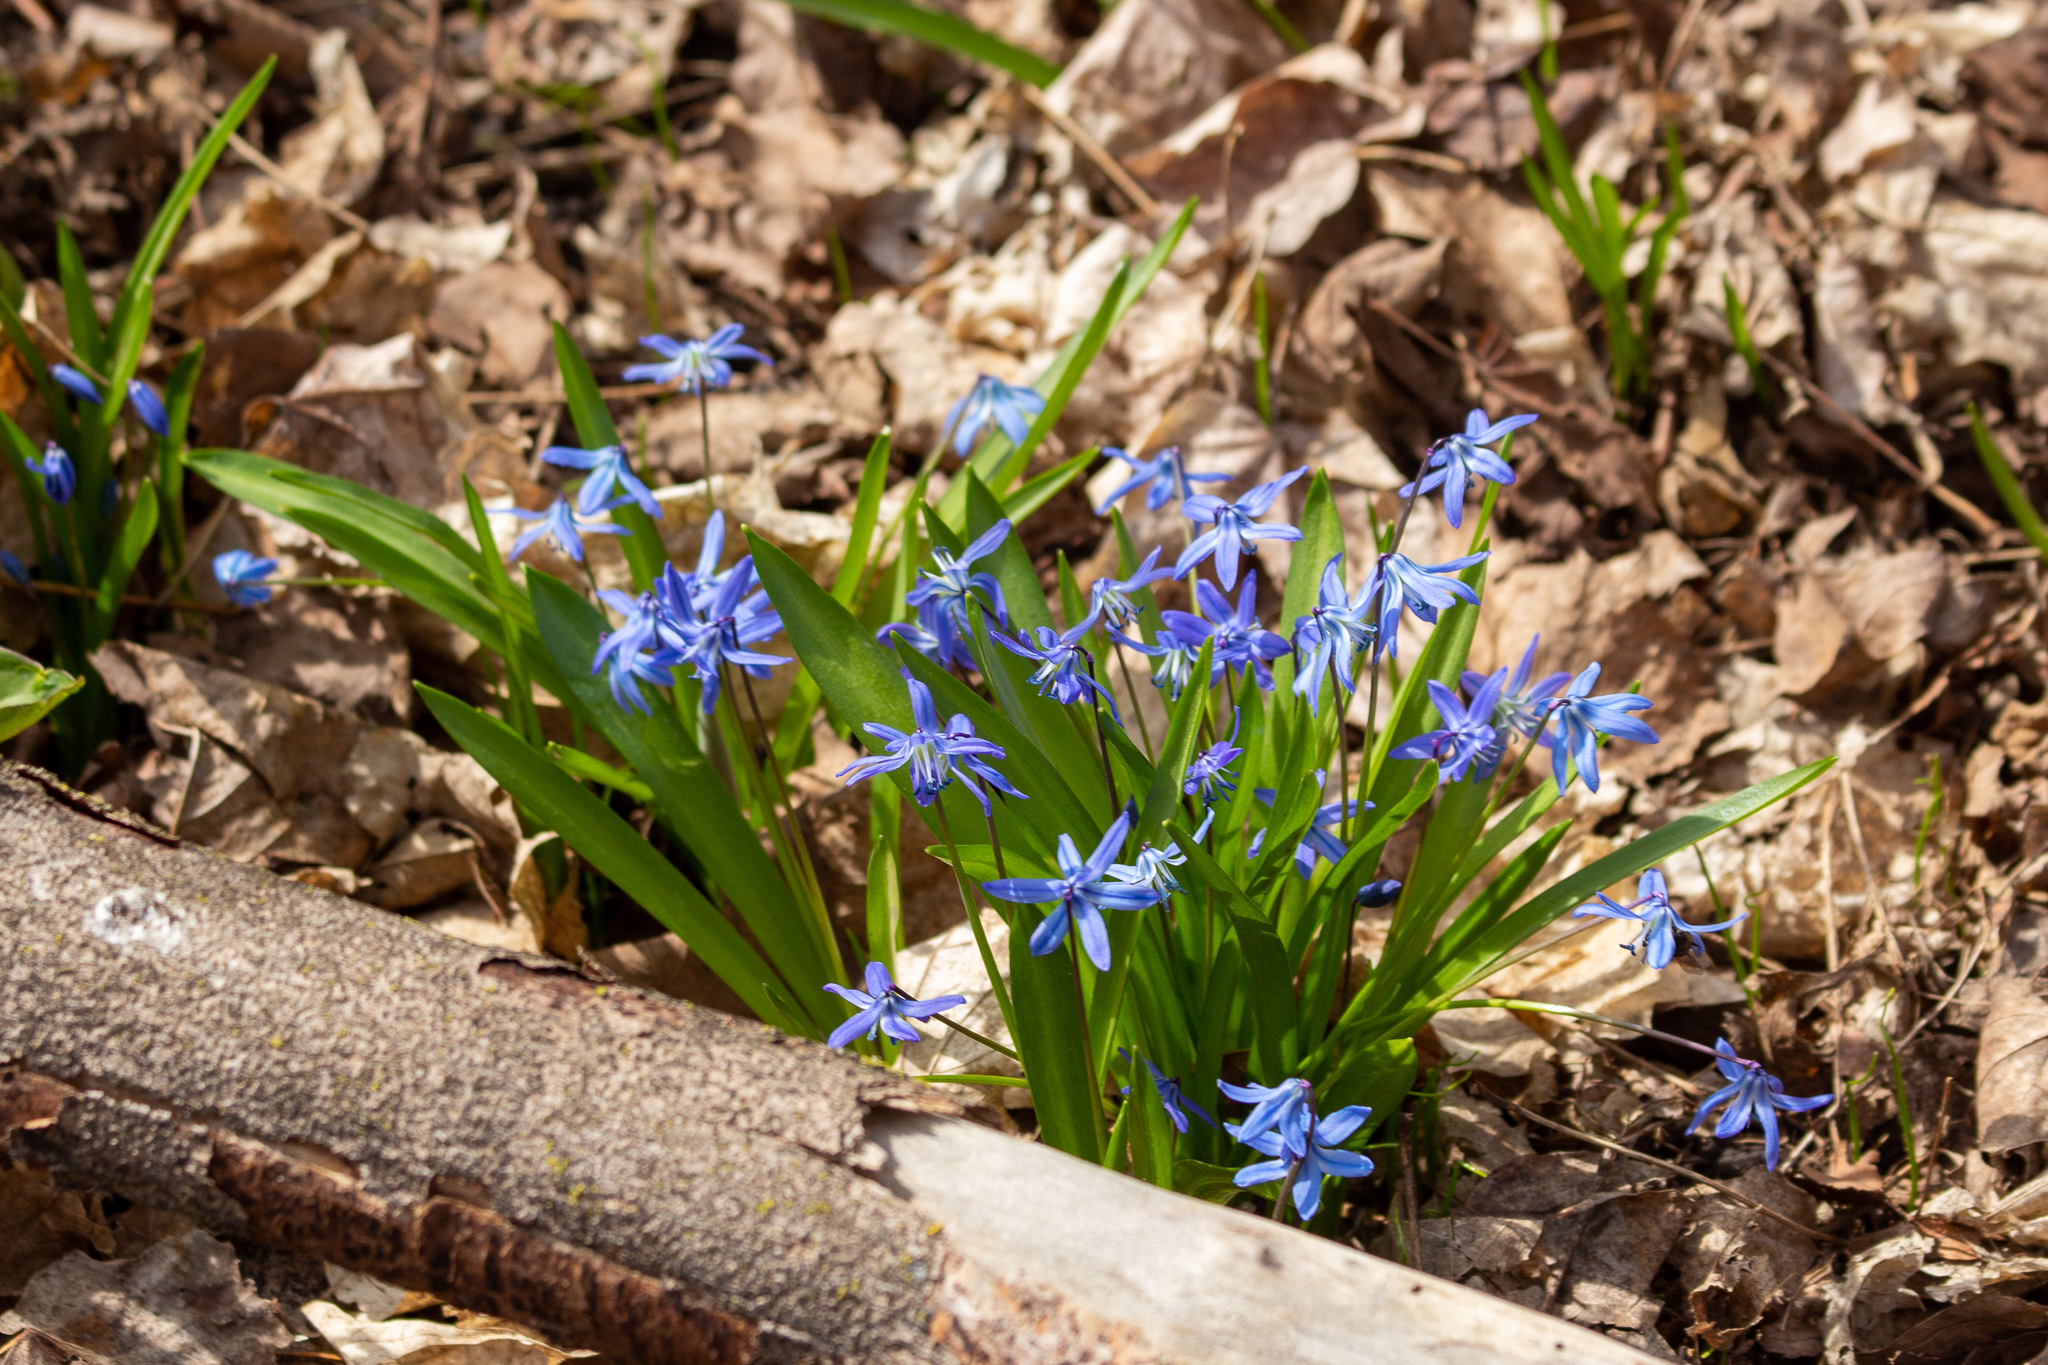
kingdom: Plantae
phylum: Tracheophyta
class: Liliopsida
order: Asparagales
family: Asparagaceae
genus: Scilla
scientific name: Scilla siberica
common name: Siberian squill
